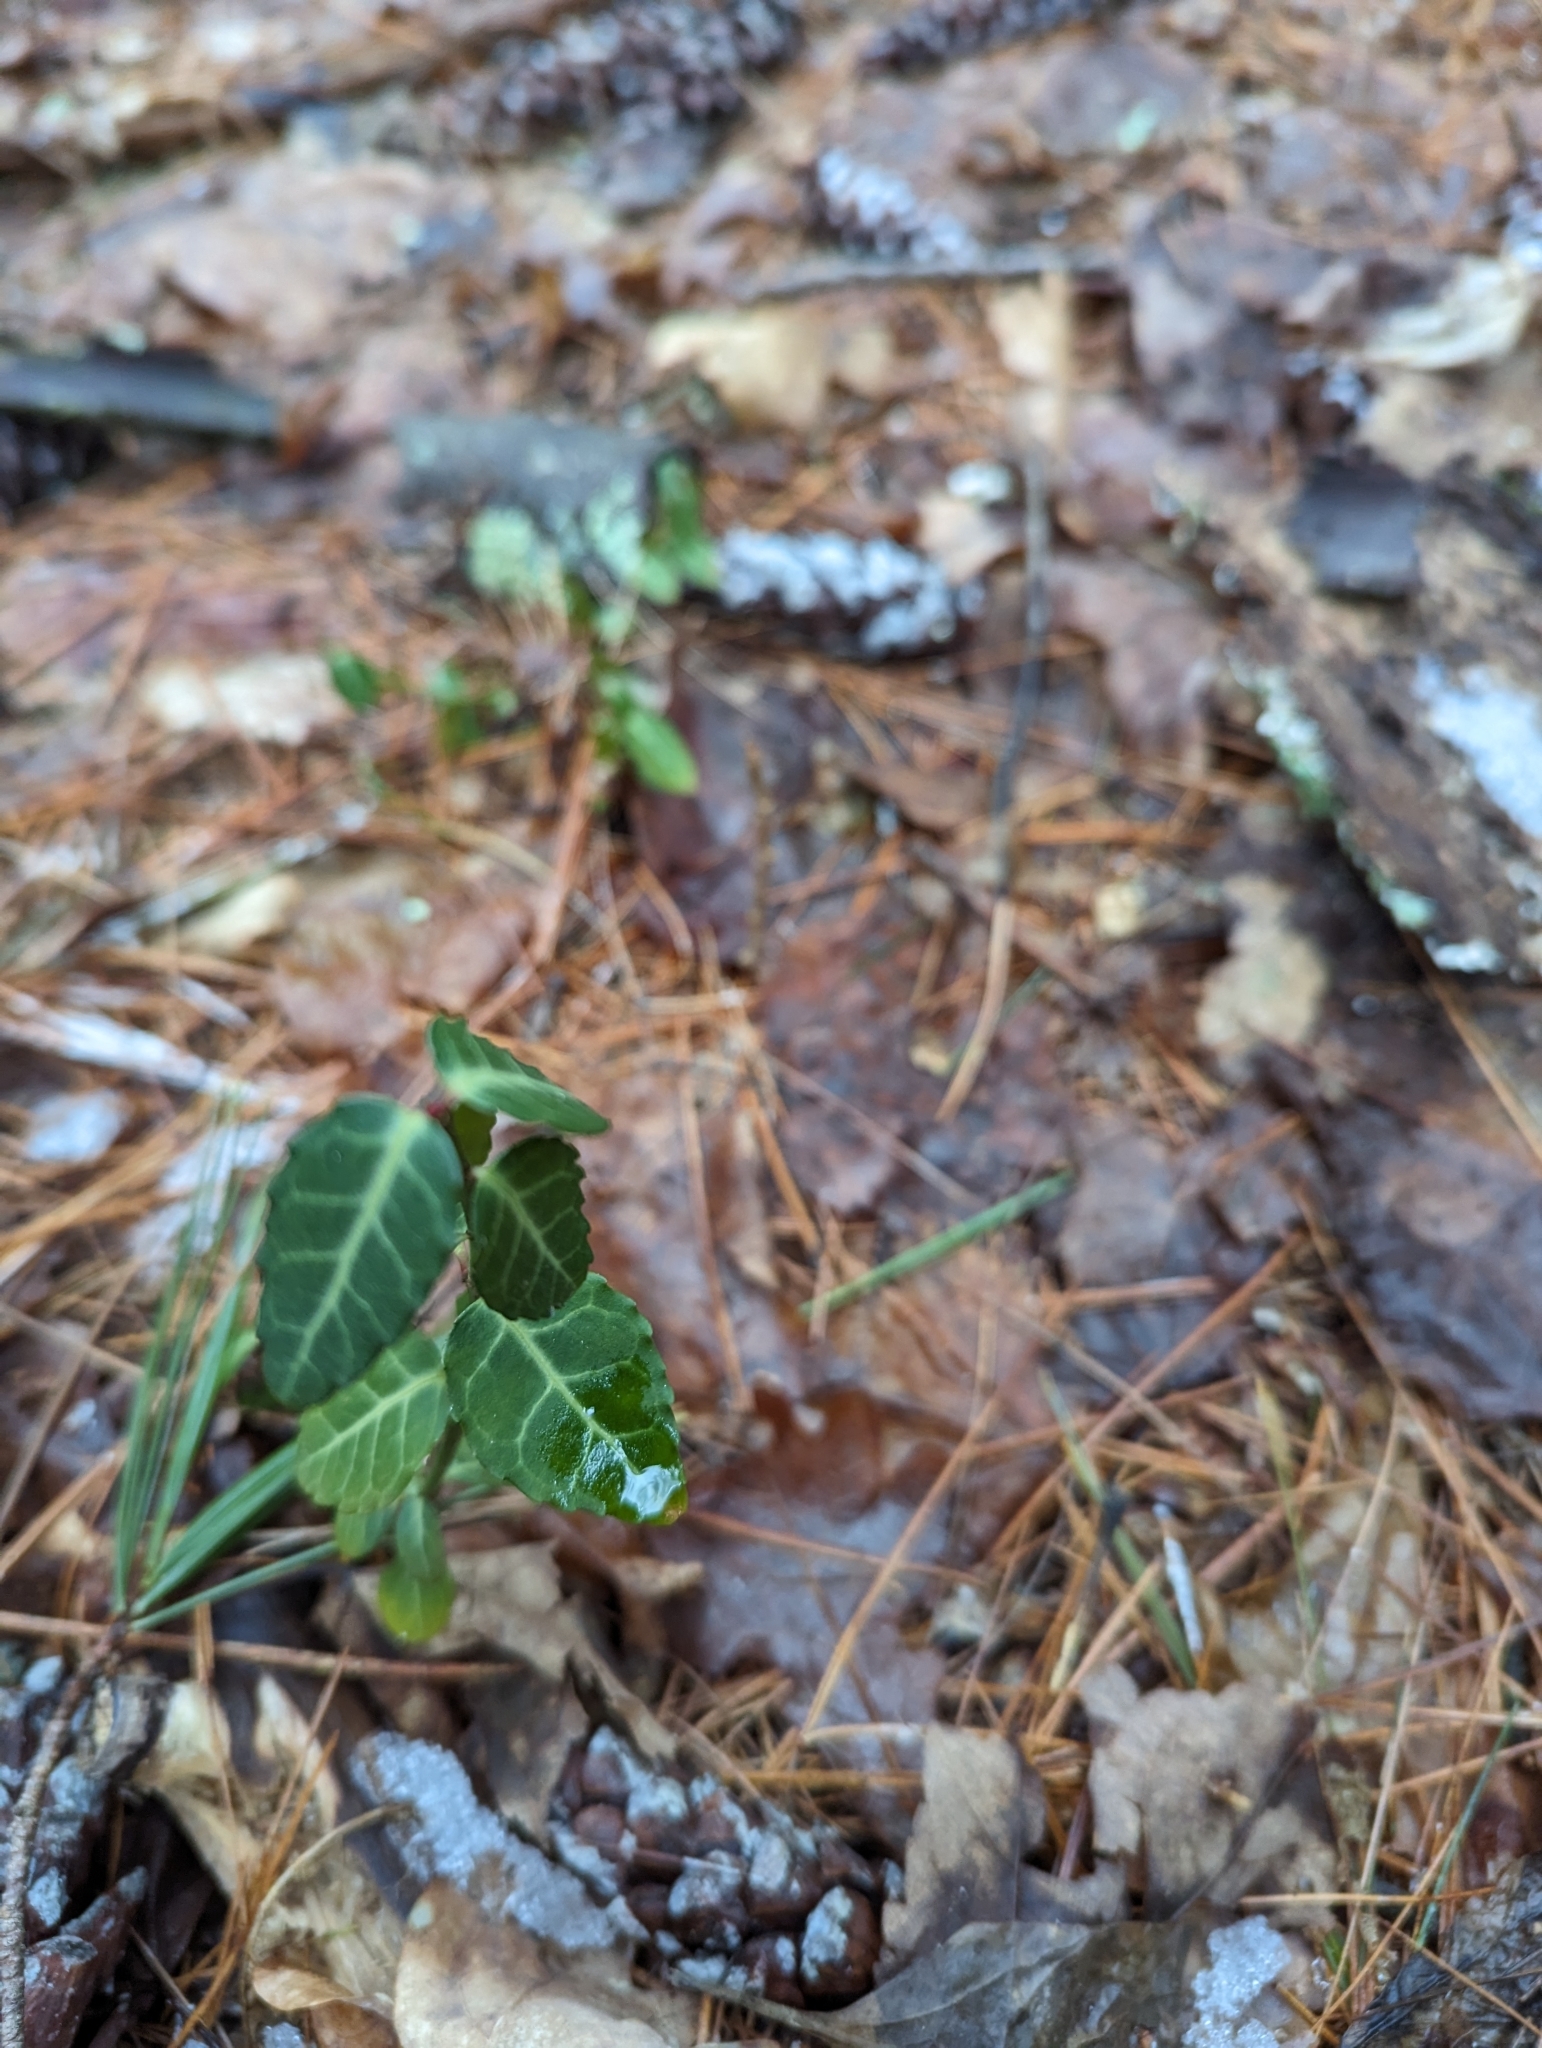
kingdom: Plantae
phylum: Tracheophyta
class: Magnoliopsida
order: Celastrales
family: Celastraceae
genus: Euonymus
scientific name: Euonymus fortunei
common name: Climbing euonymus
